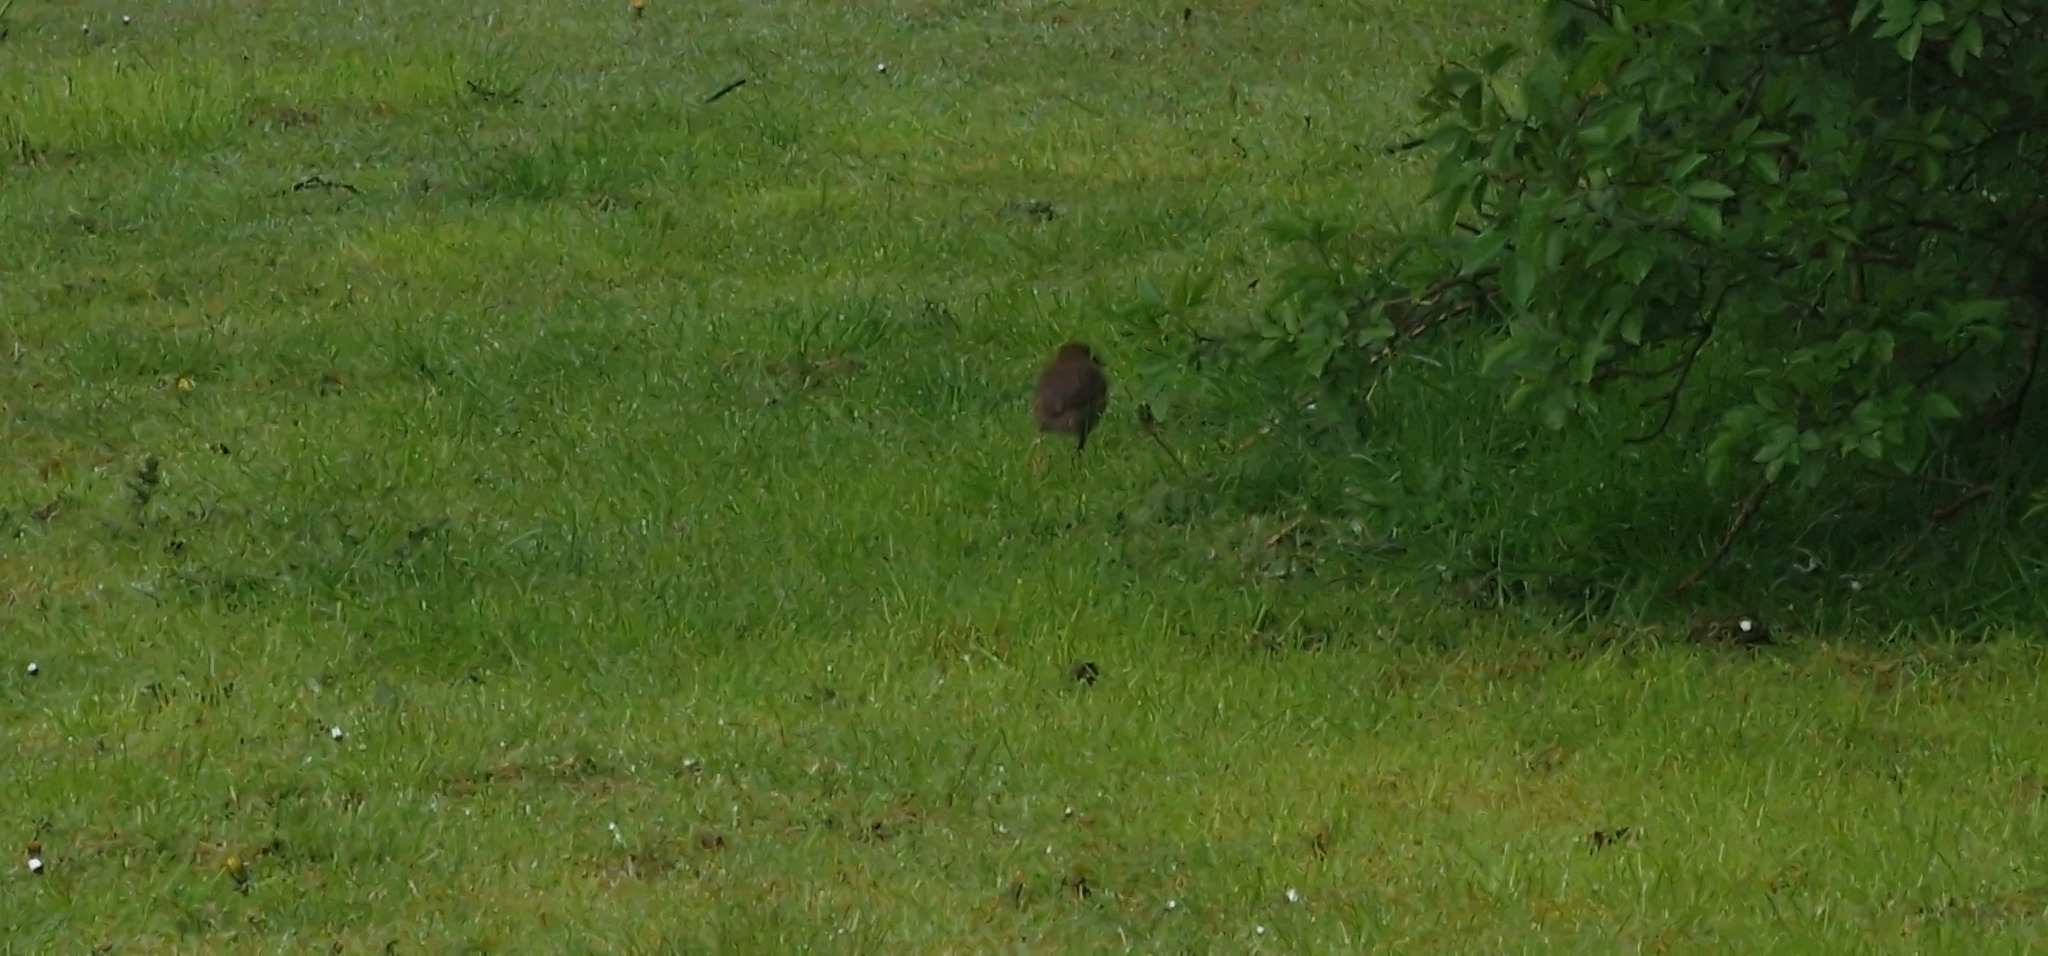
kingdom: Animalia
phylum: Chordata
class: Aves
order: Passeriformes
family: Turdidae
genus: Turdus
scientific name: Turdus philomelos
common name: Song thrush
